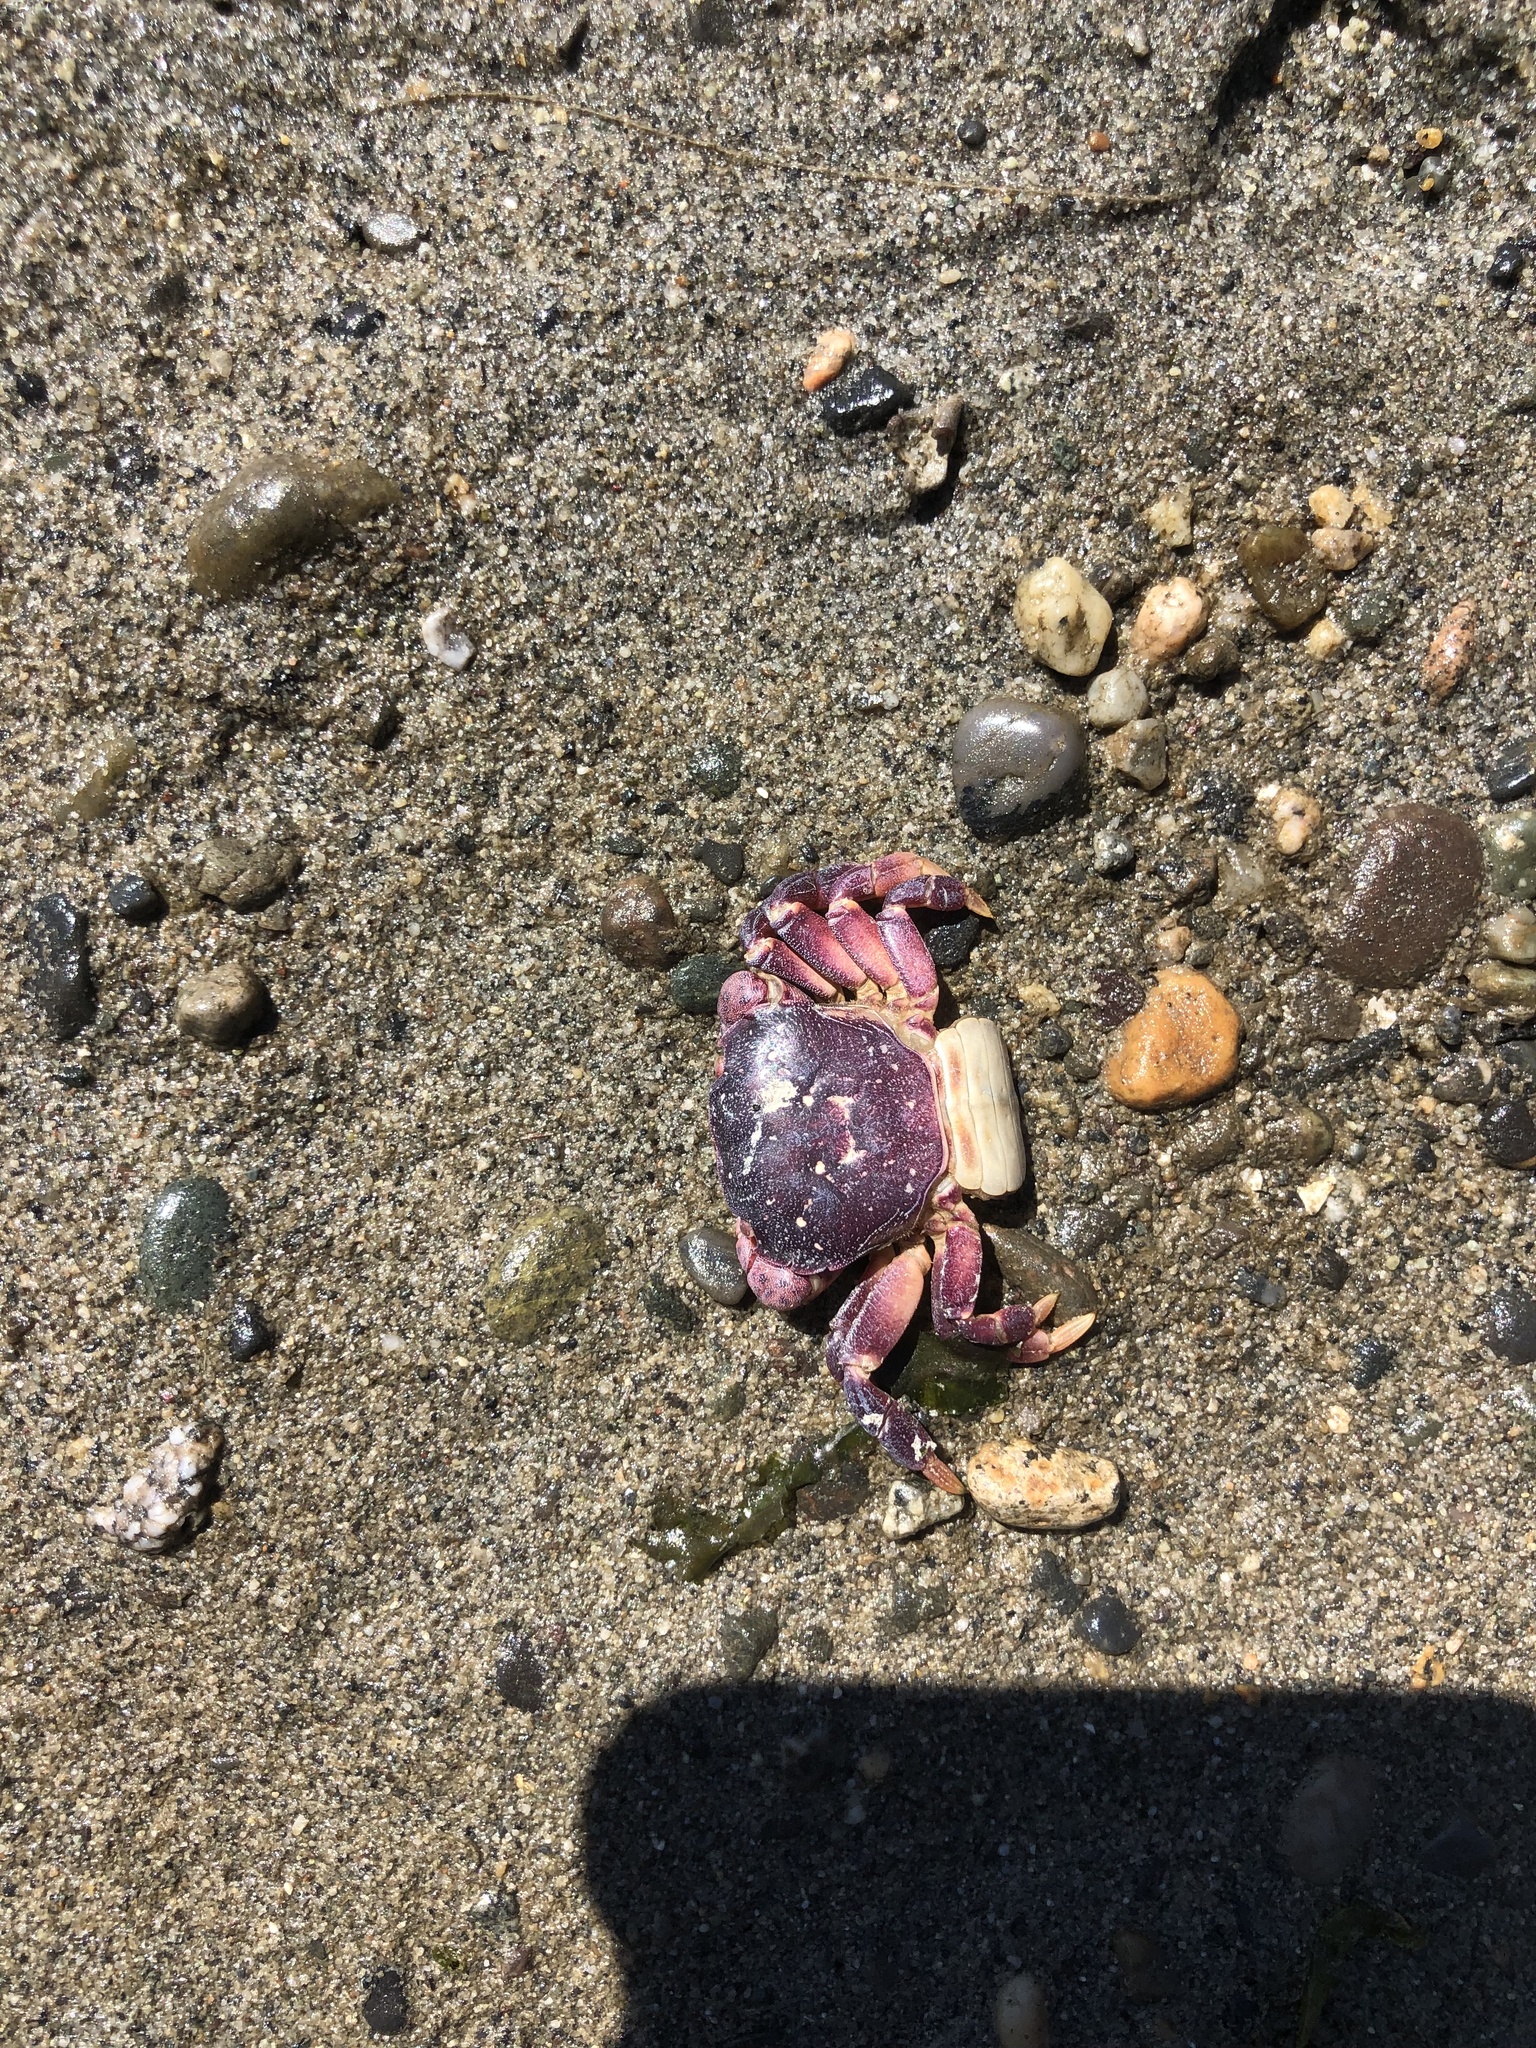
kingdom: Animalia
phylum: Arthropoda
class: Malacostraca
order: Decapoda
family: Varunidae
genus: Hemigrapsus
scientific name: Hemigrapsus nudus
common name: Purple shore crab
